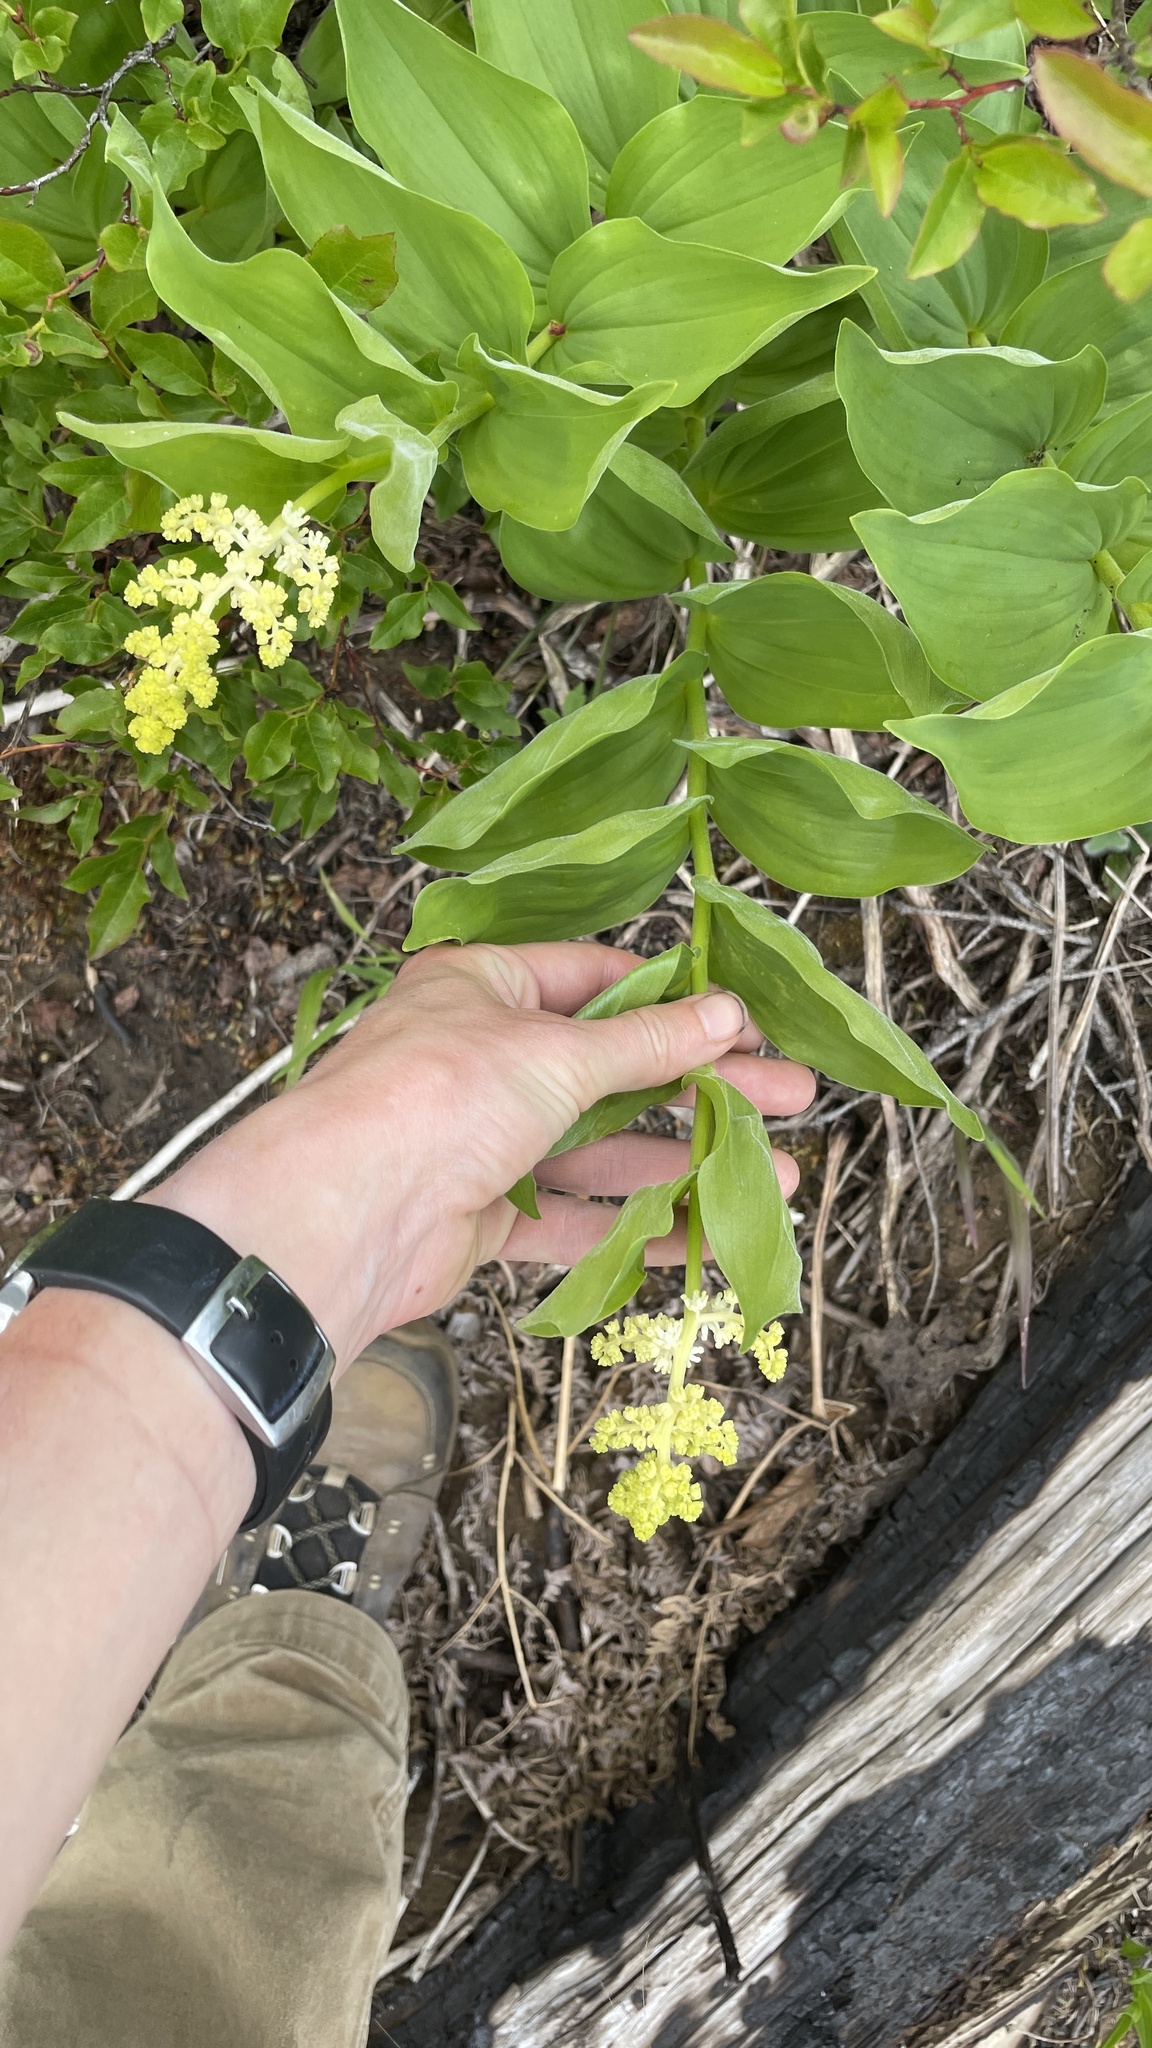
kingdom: Plantae
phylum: Tracheophyta
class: Liliopsida
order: Asparagales
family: Asparagaceae
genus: Maianthemum
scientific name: Maianthemum racemosum
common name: False spikenard
